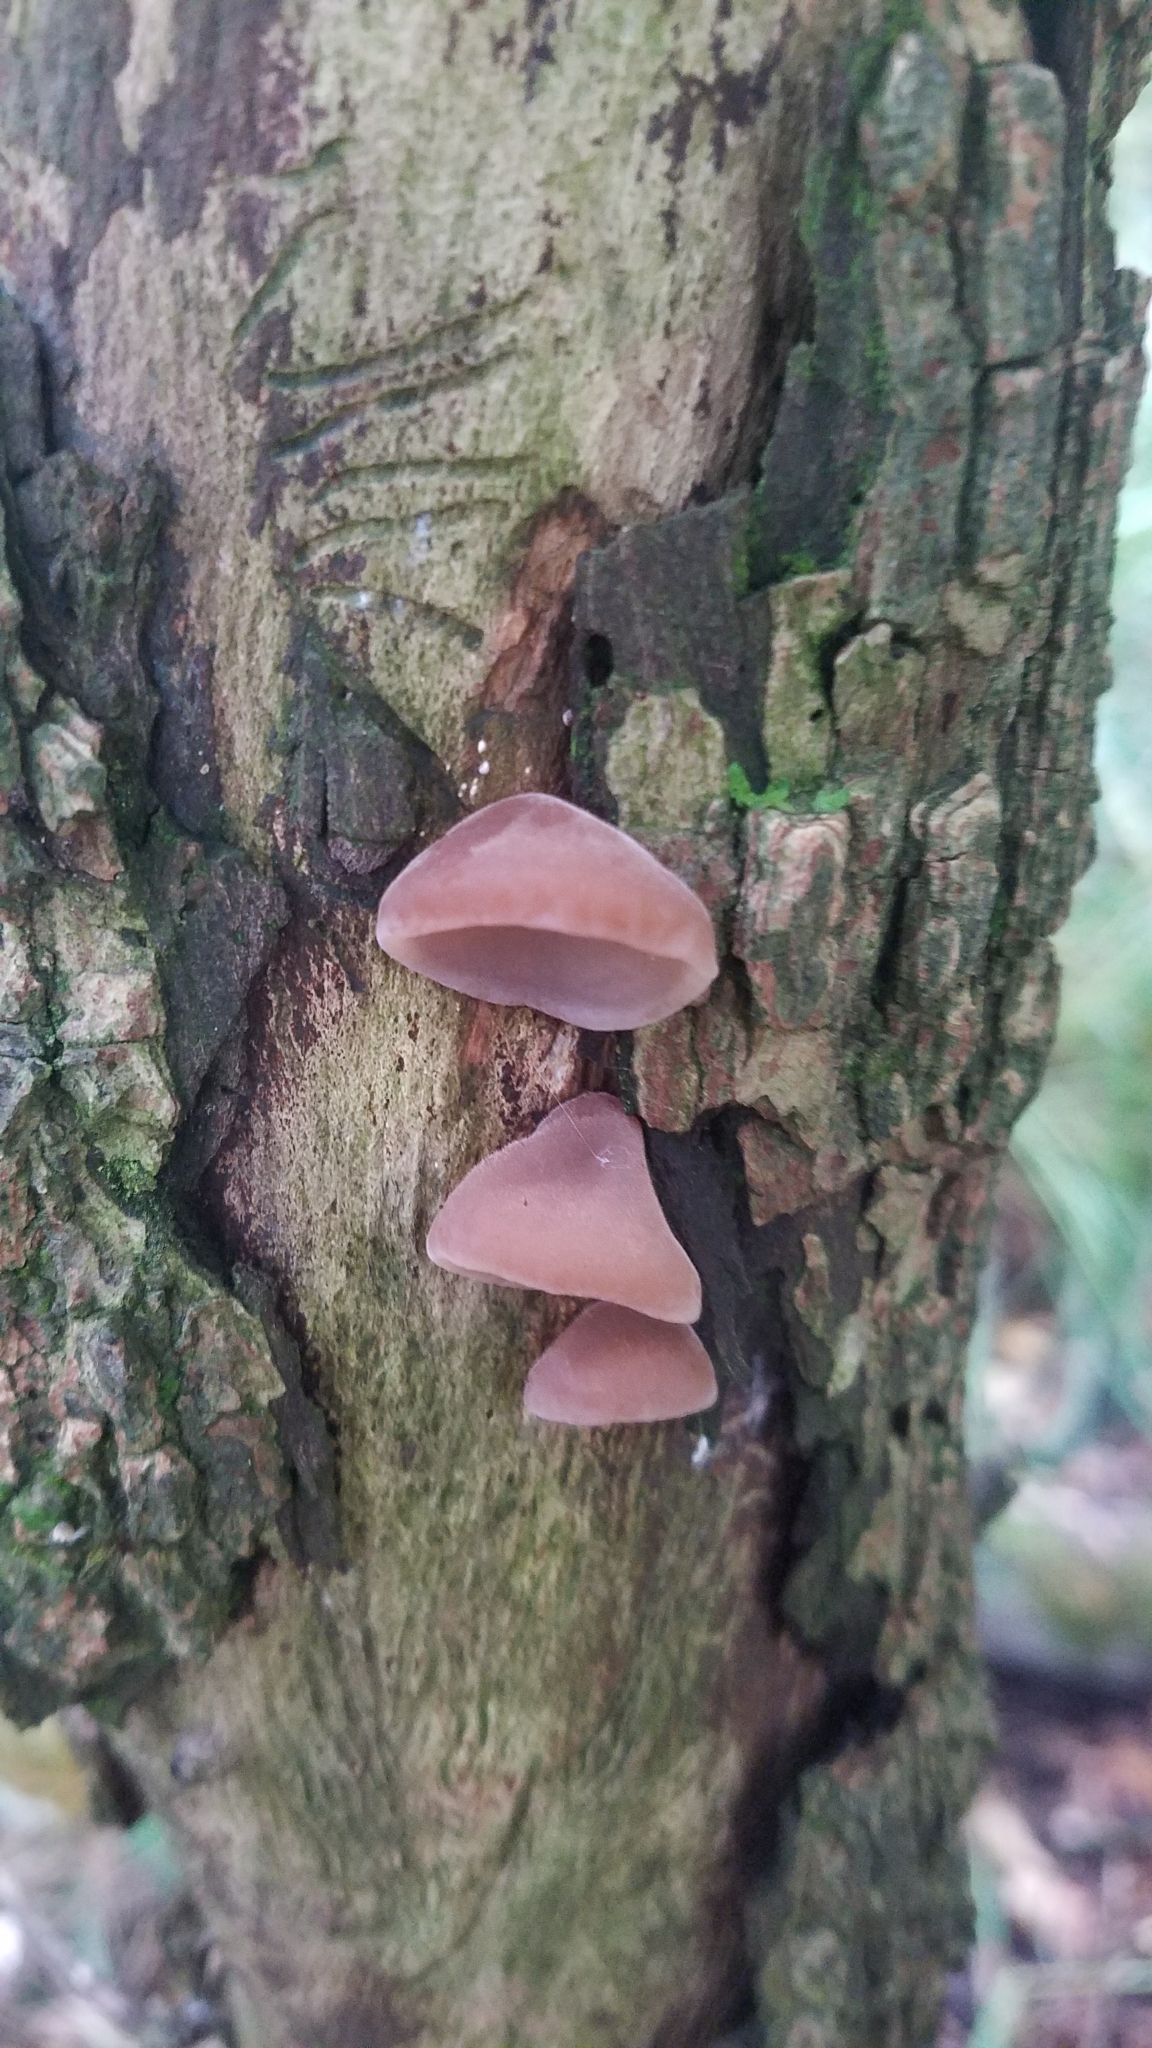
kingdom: Fungi
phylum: Basidiomycota
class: Agaricomycetes
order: Auriculariales
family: Auriculariaceae
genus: Auricularia
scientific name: Auricularia auricula-judae
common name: Jelly ear
